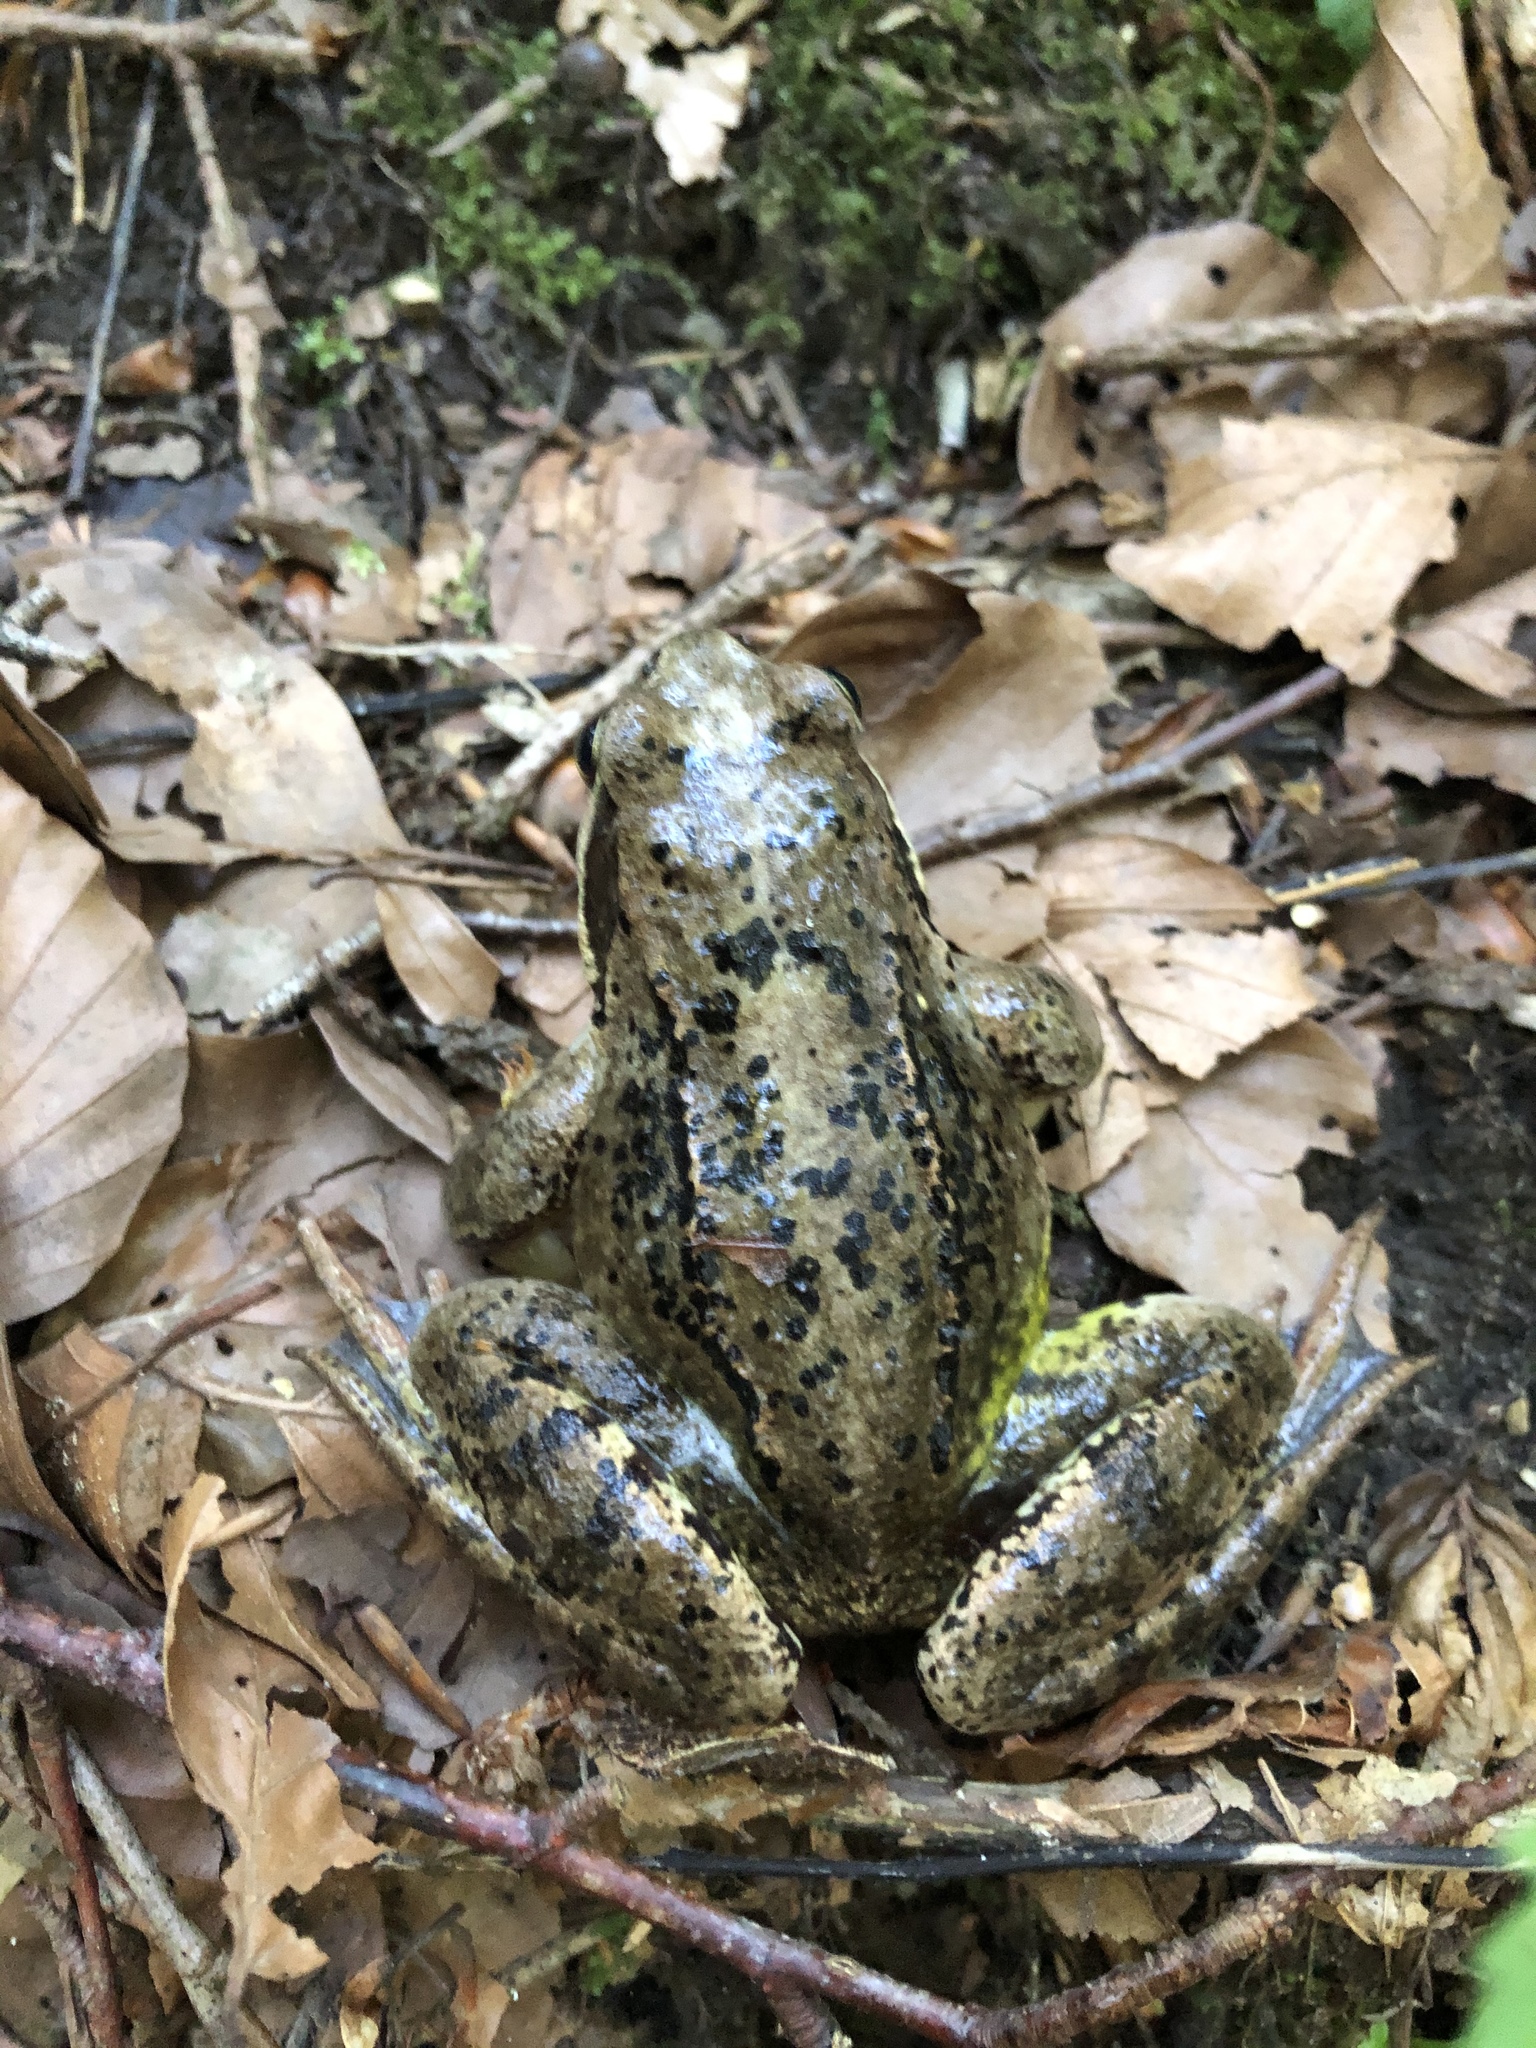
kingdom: Animalia
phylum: Chordata
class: Amphibia
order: Anura
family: Ranidae
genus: Rana
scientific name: Rana temporaria
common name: Common frog
